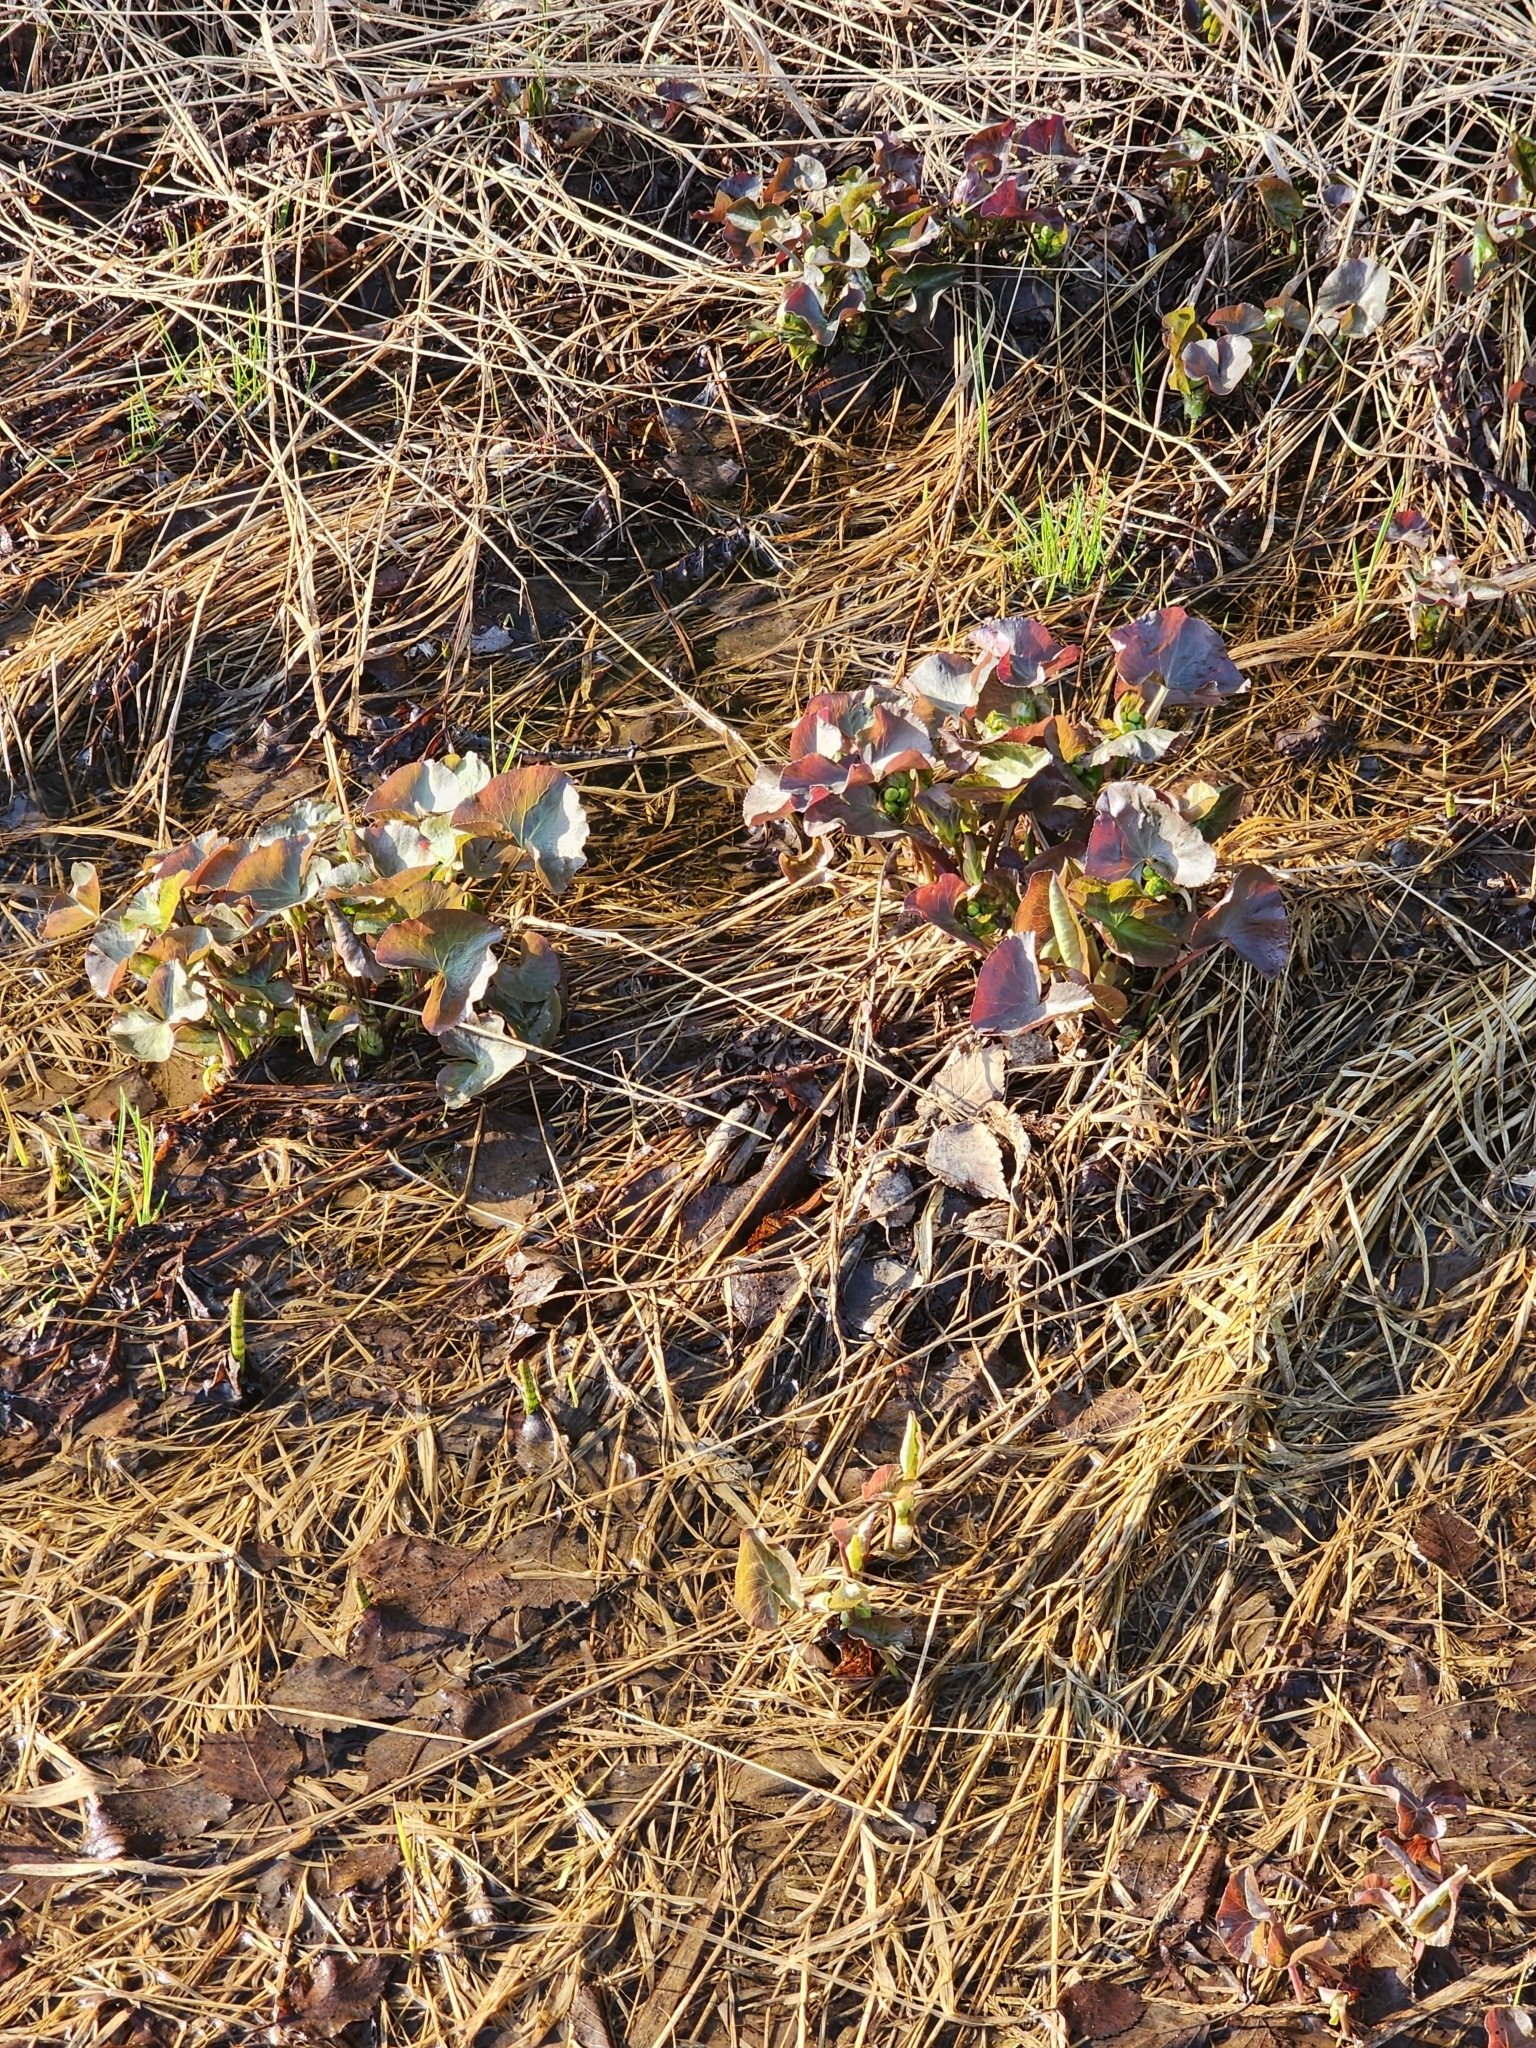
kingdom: Plantae
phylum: Tracheophyta
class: Magnoliopsida
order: Ranunculales
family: Ranunculaceae
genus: Caltha
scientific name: Caltha palustris
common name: Marsh marigold
